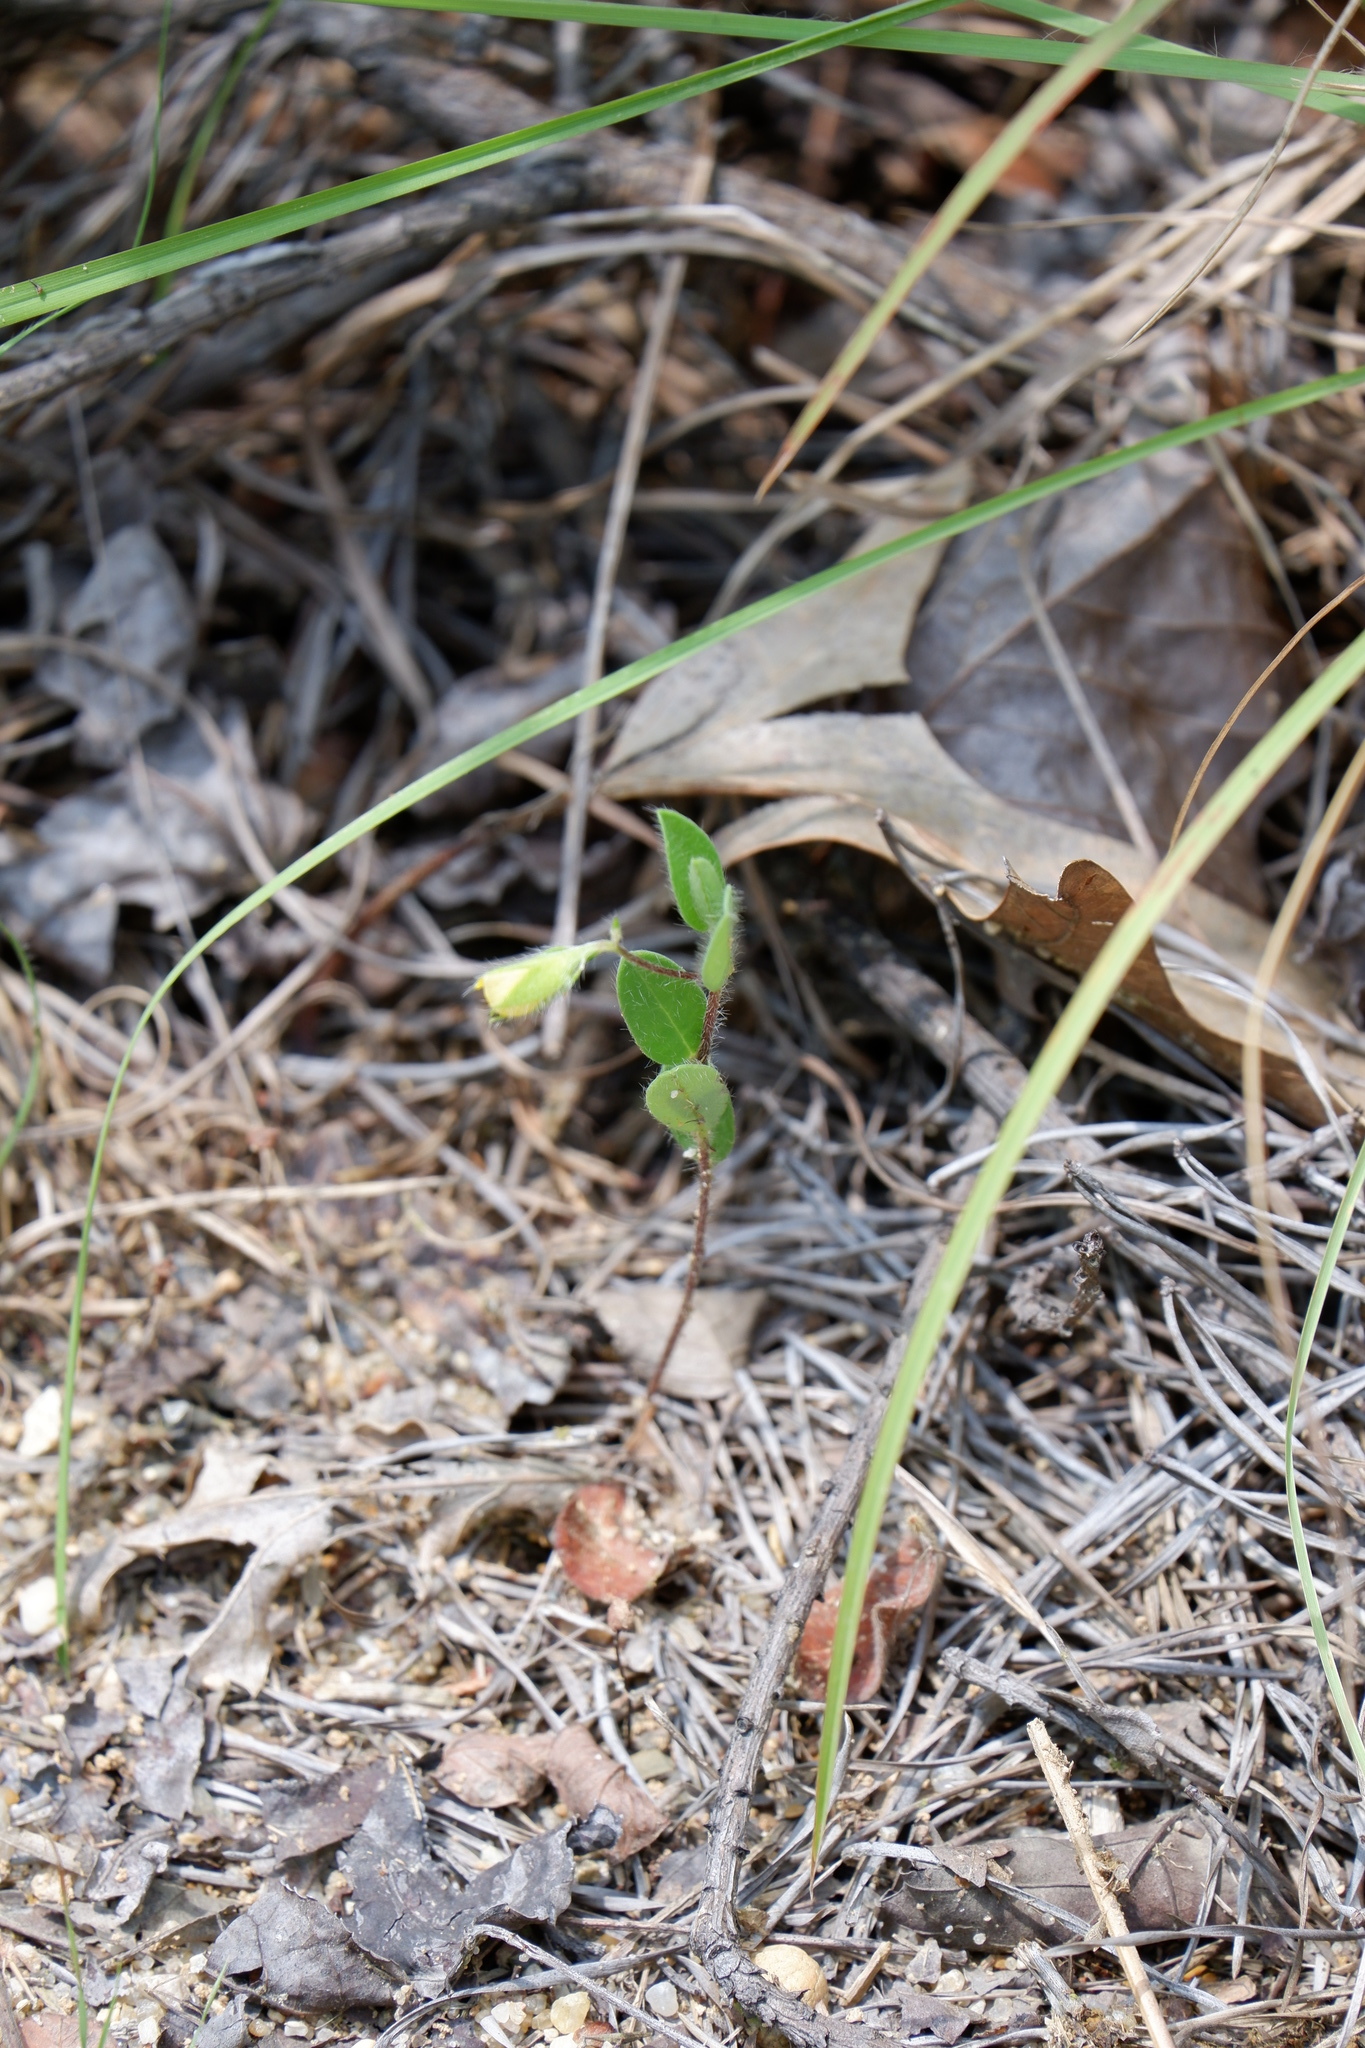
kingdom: Plantae
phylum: Tracheophyta
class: Magnoliopsida
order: Fabales
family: Fabaceae
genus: Crotalaria
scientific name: Crotalaria sagittalis
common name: Arrowhead rattlebox
